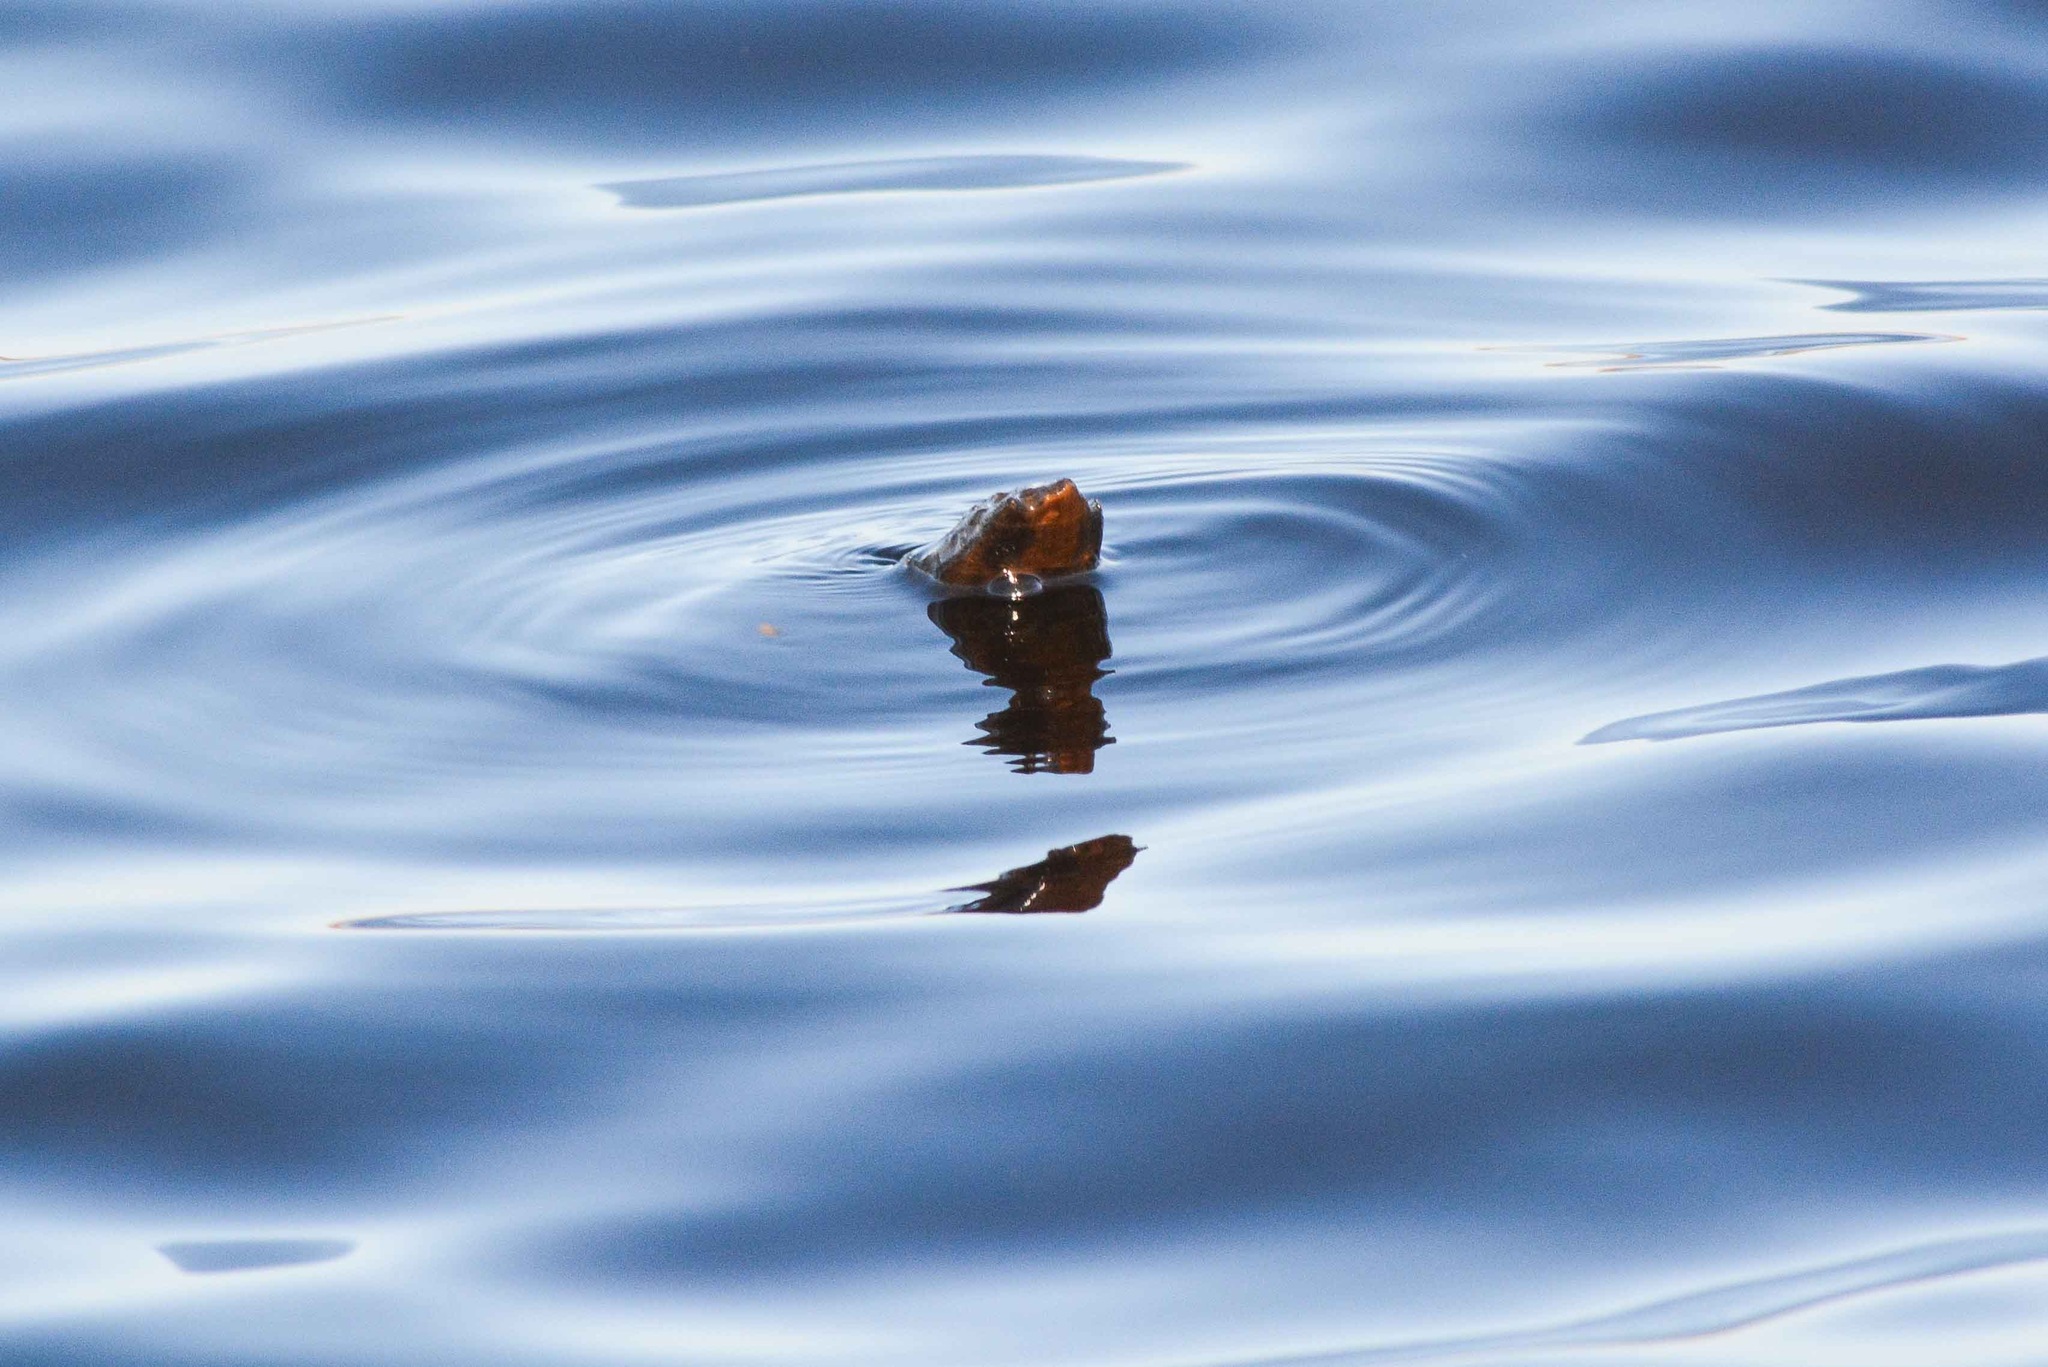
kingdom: Animalia
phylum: Chordata
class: Testudines
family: Chelydridae
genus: Chelydra
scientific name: Chelydra serpentina
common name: Common snapping turtle
